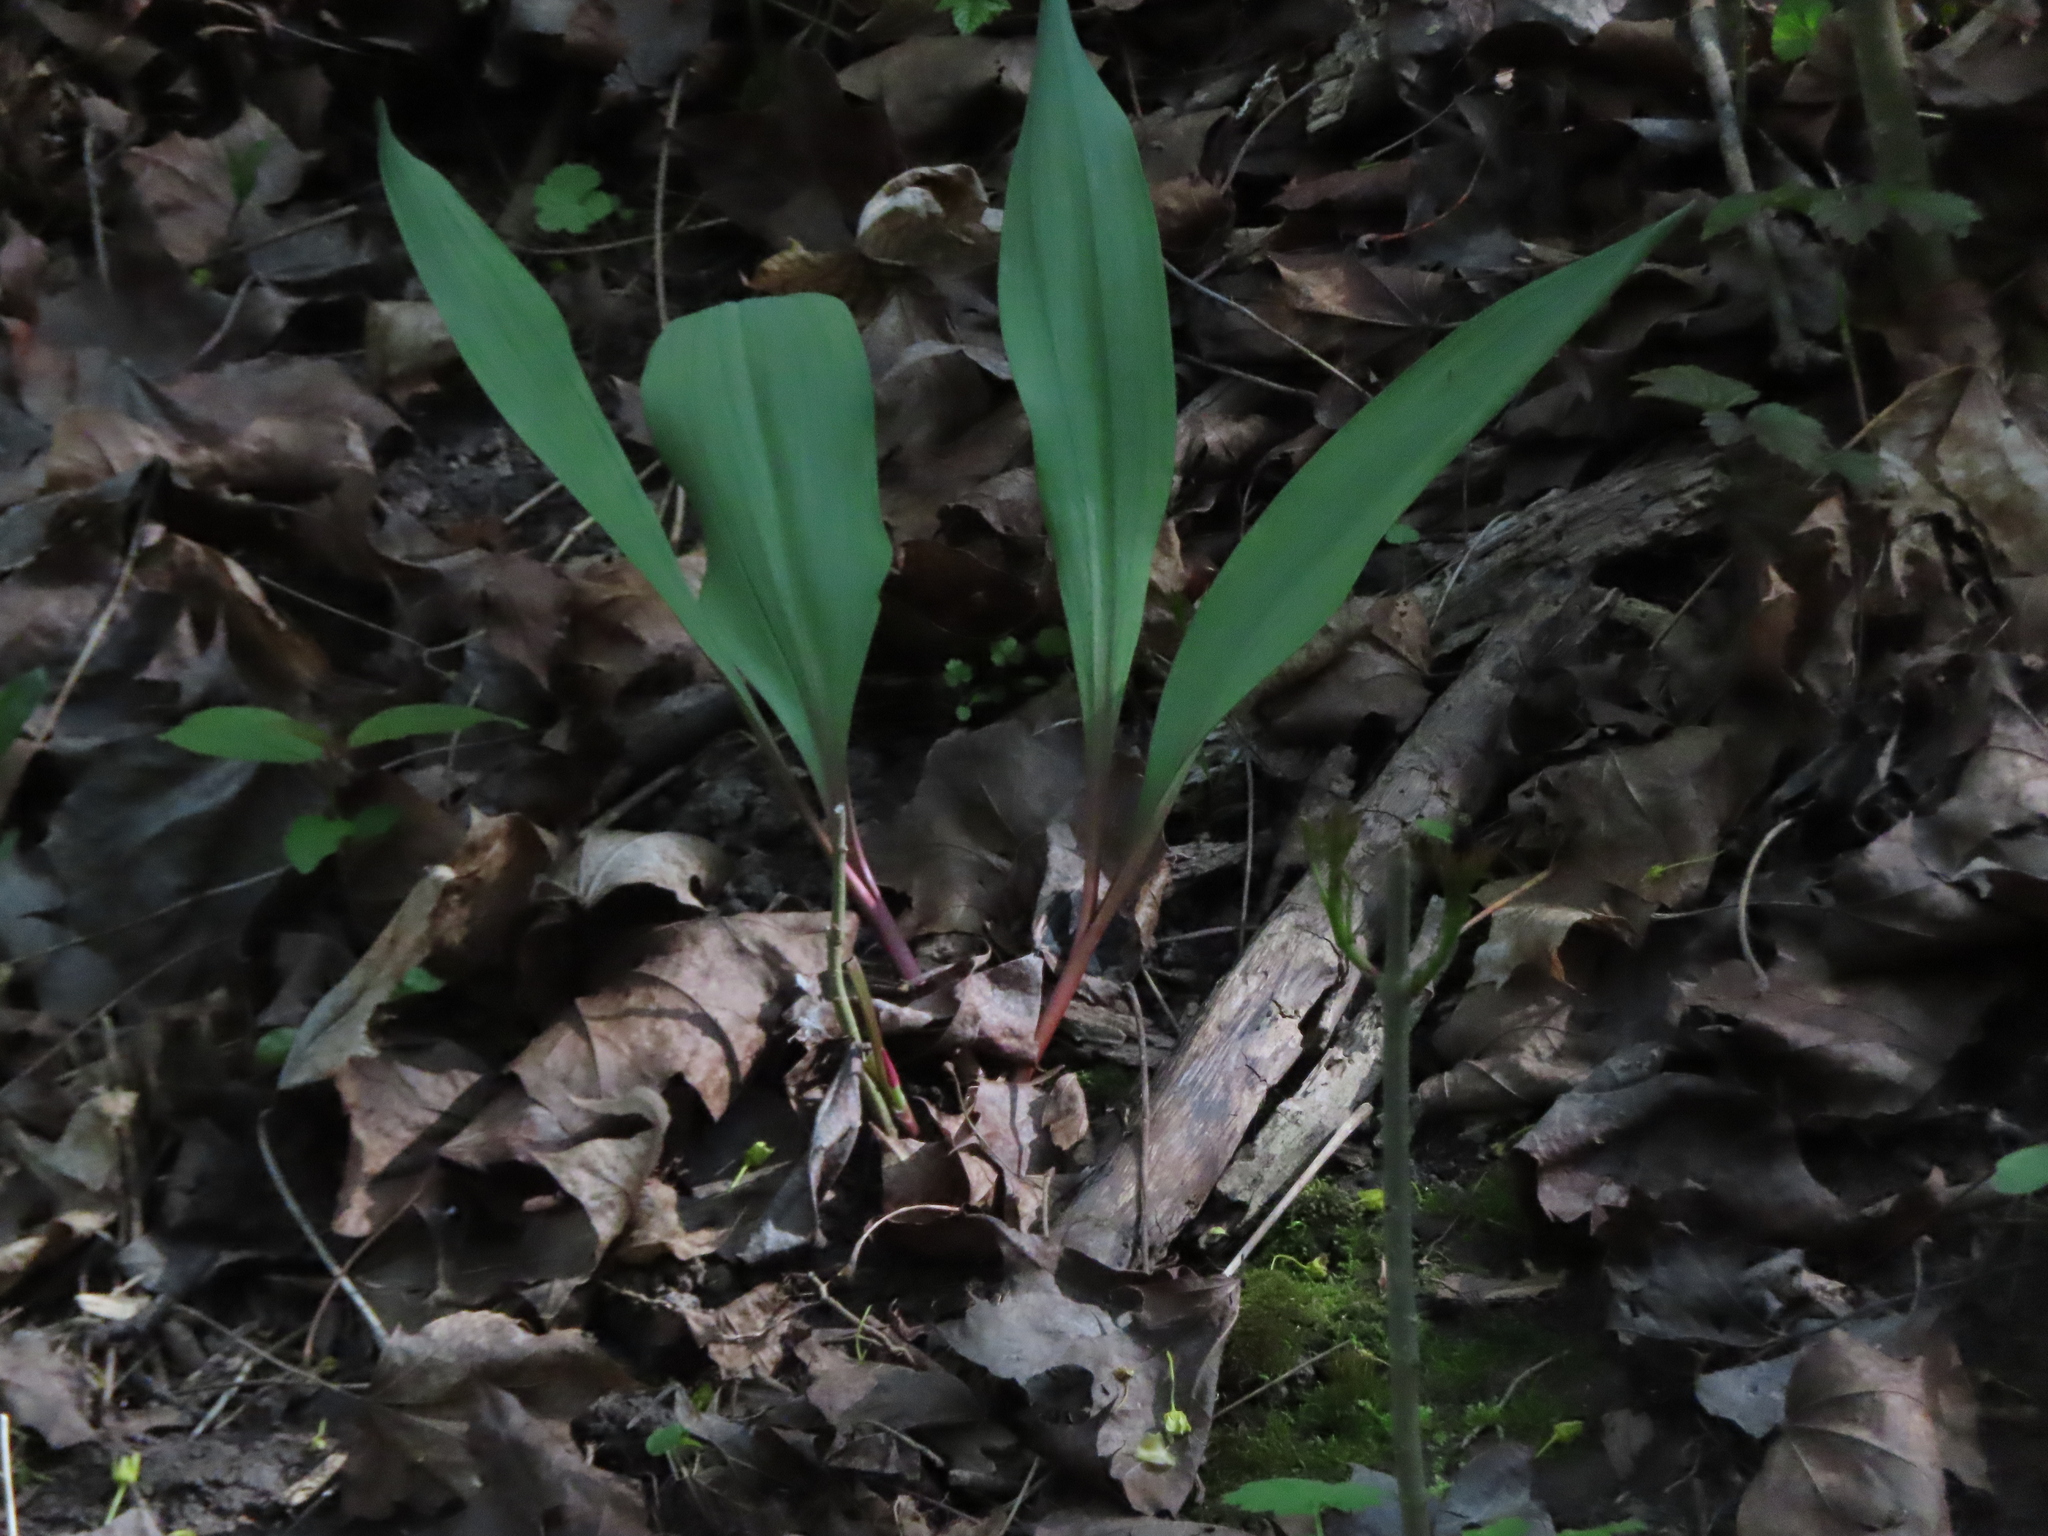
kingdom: Plantae
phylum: Tracheophyta
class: Liliopsida
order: Asparagales
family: Amaryllidaceae
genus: Allium
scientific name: Allium tricoccum
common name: Ramp
